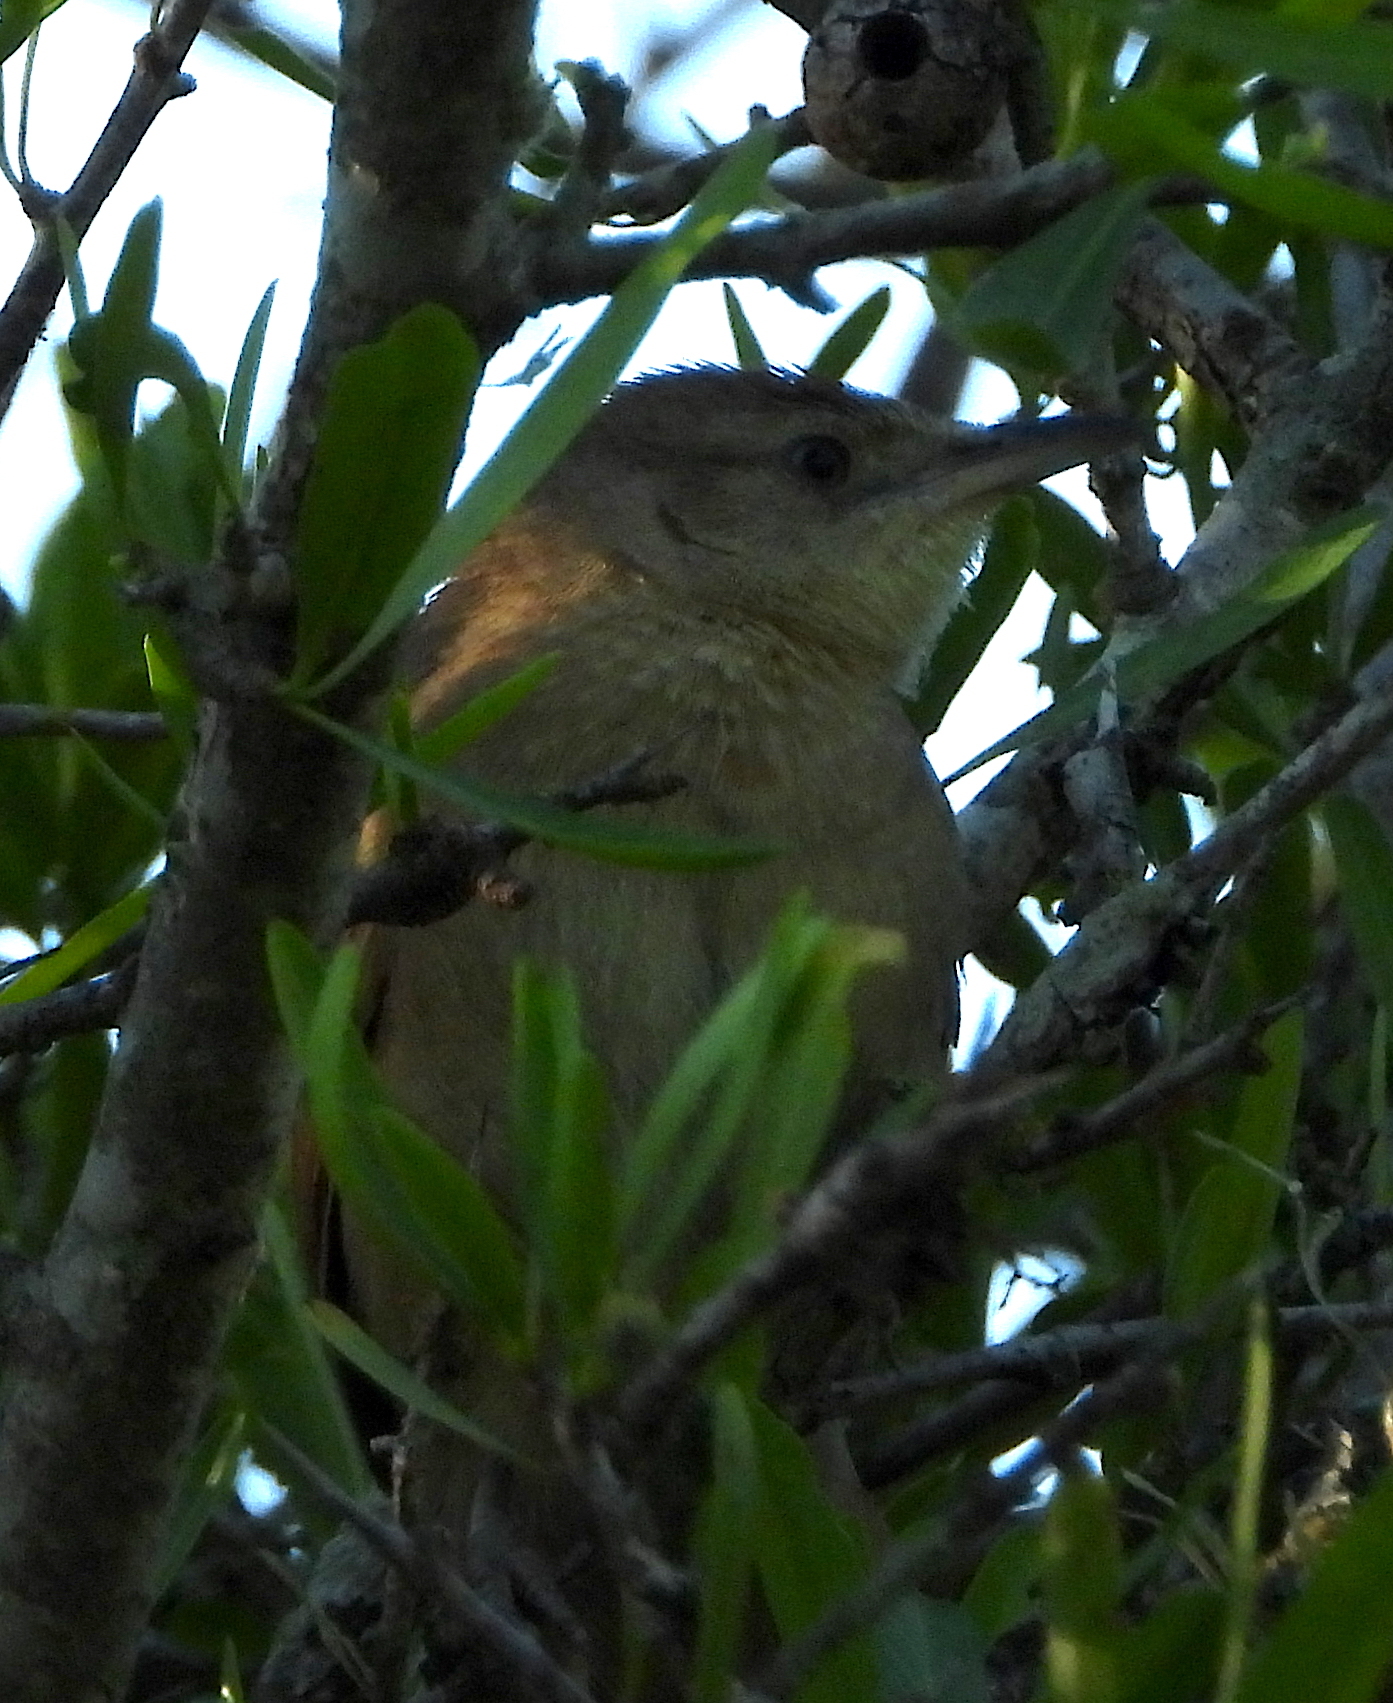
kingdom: Animalia
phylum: Chordata
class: Aves
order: Passeriformes
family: Furnariidae
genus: Phacellodomus
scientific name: Phacellodomus striaticollis
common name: Freckle-breasted thornbird
